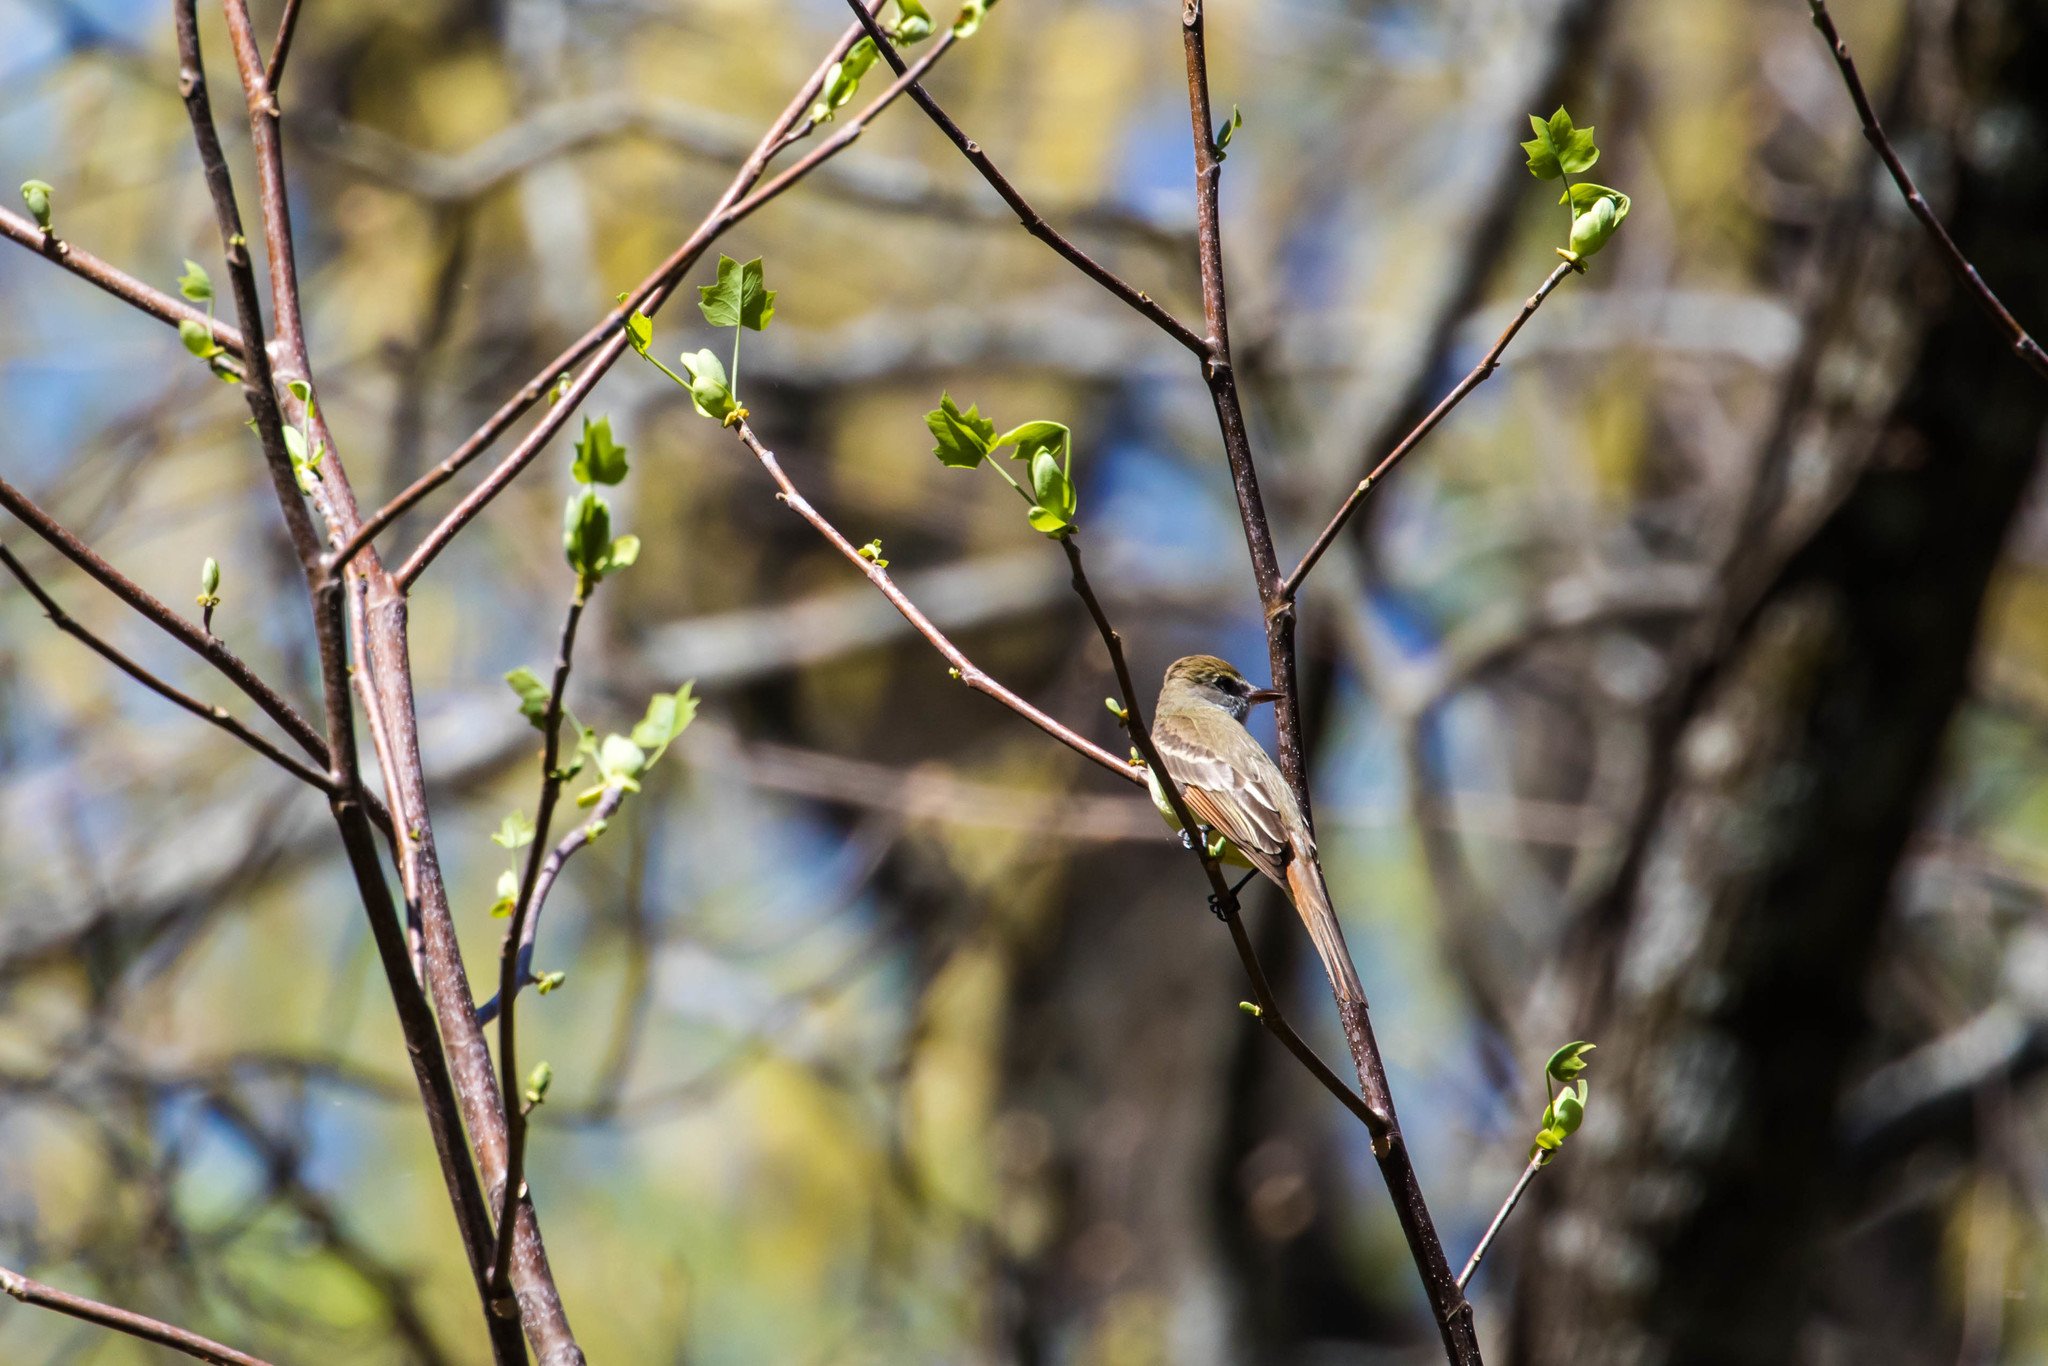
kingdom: Animalia
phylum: Chordata
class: Aves
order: Passeriformes
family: Tyrannidae
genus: Myiarchus
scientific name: Myiarchus crinitus
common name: Great crested flycatcher
